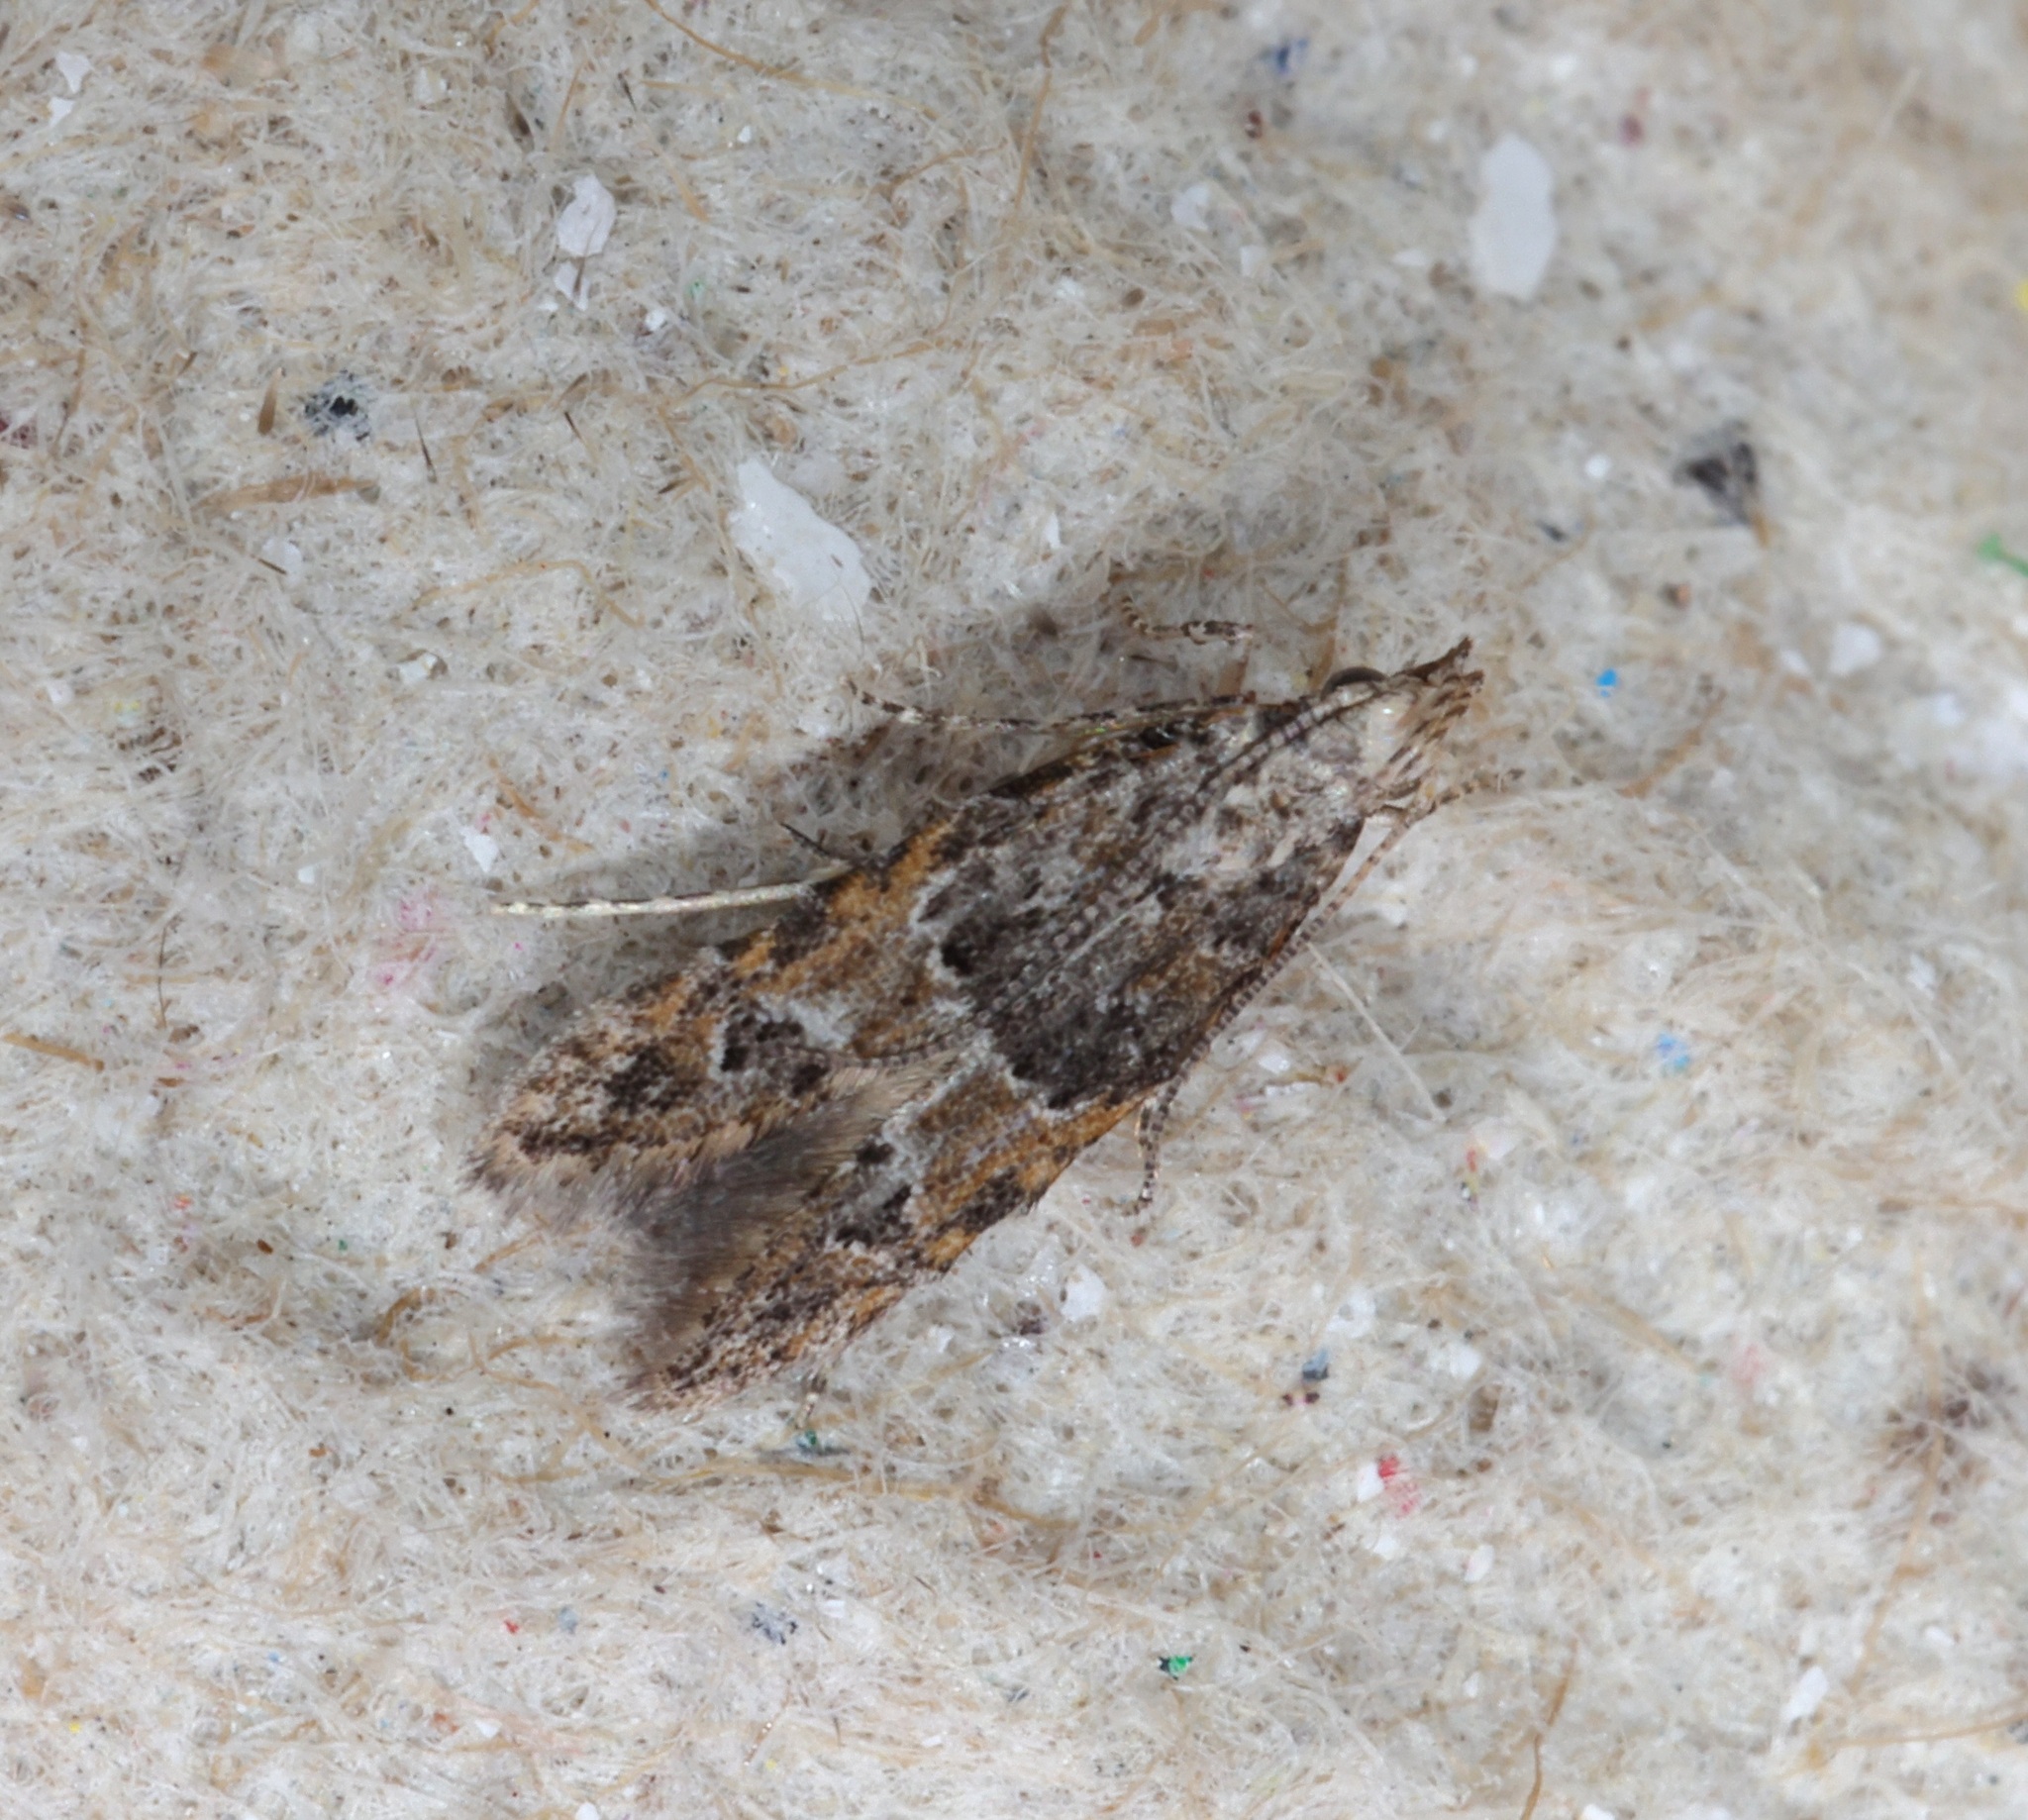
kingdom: Animalia
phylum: Arthropoda
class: Insecta
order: Lepidoptera
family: Gelechiidae
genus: Empalactis
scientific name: Empalactis
